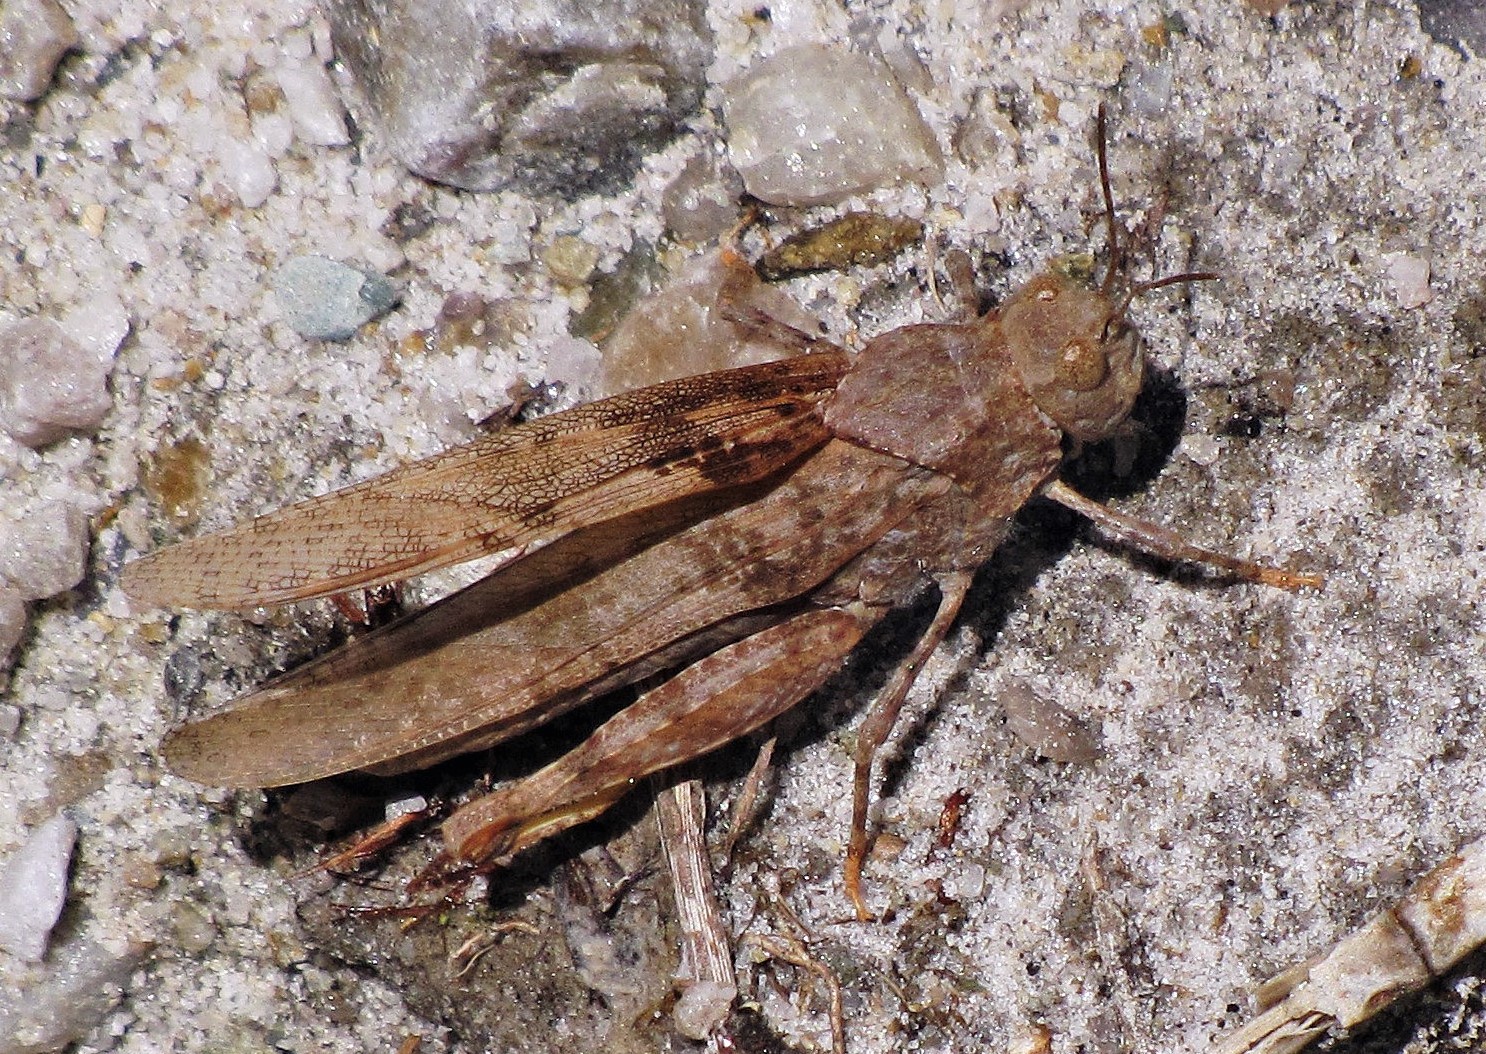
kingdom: Animalia
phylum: Arthropoda
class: Insecta
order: Orthoptera
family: Acrididae
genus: Trimerotropis
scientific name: Trimerotropis pallidipennis
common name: Pallid-winged grasshopper
